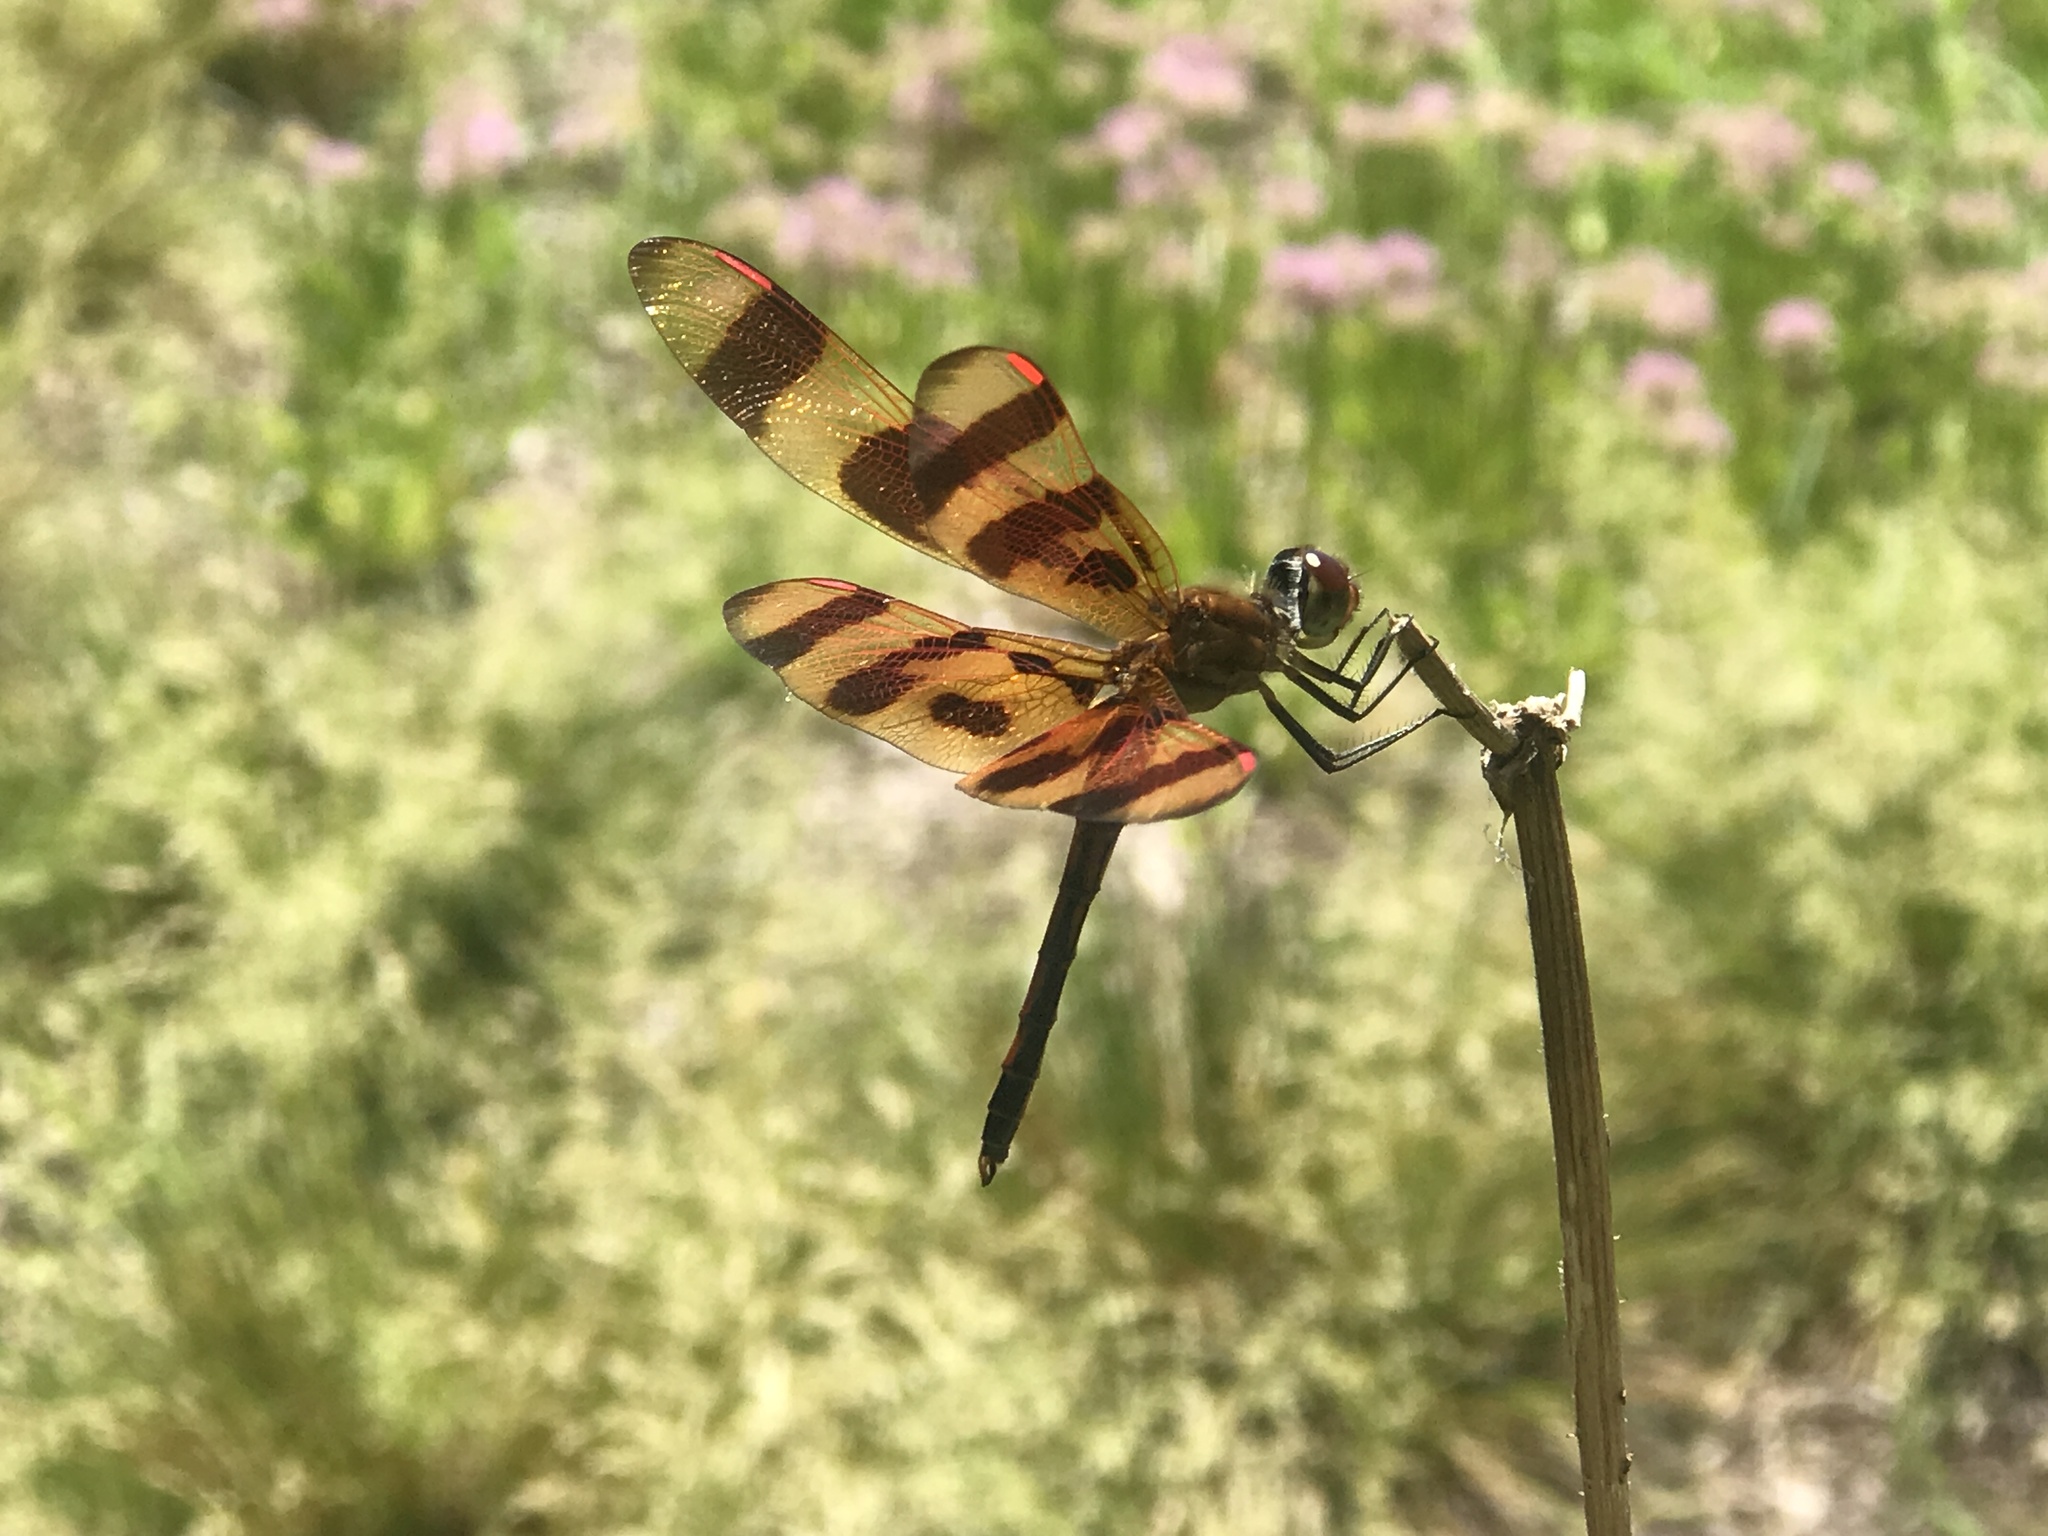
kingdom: Animalia
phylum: Arthropoda
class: Insecta
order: Odonata
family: Libellulidae
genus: Celithemis
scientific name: Celithemis eponina
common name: Halloween pennant
